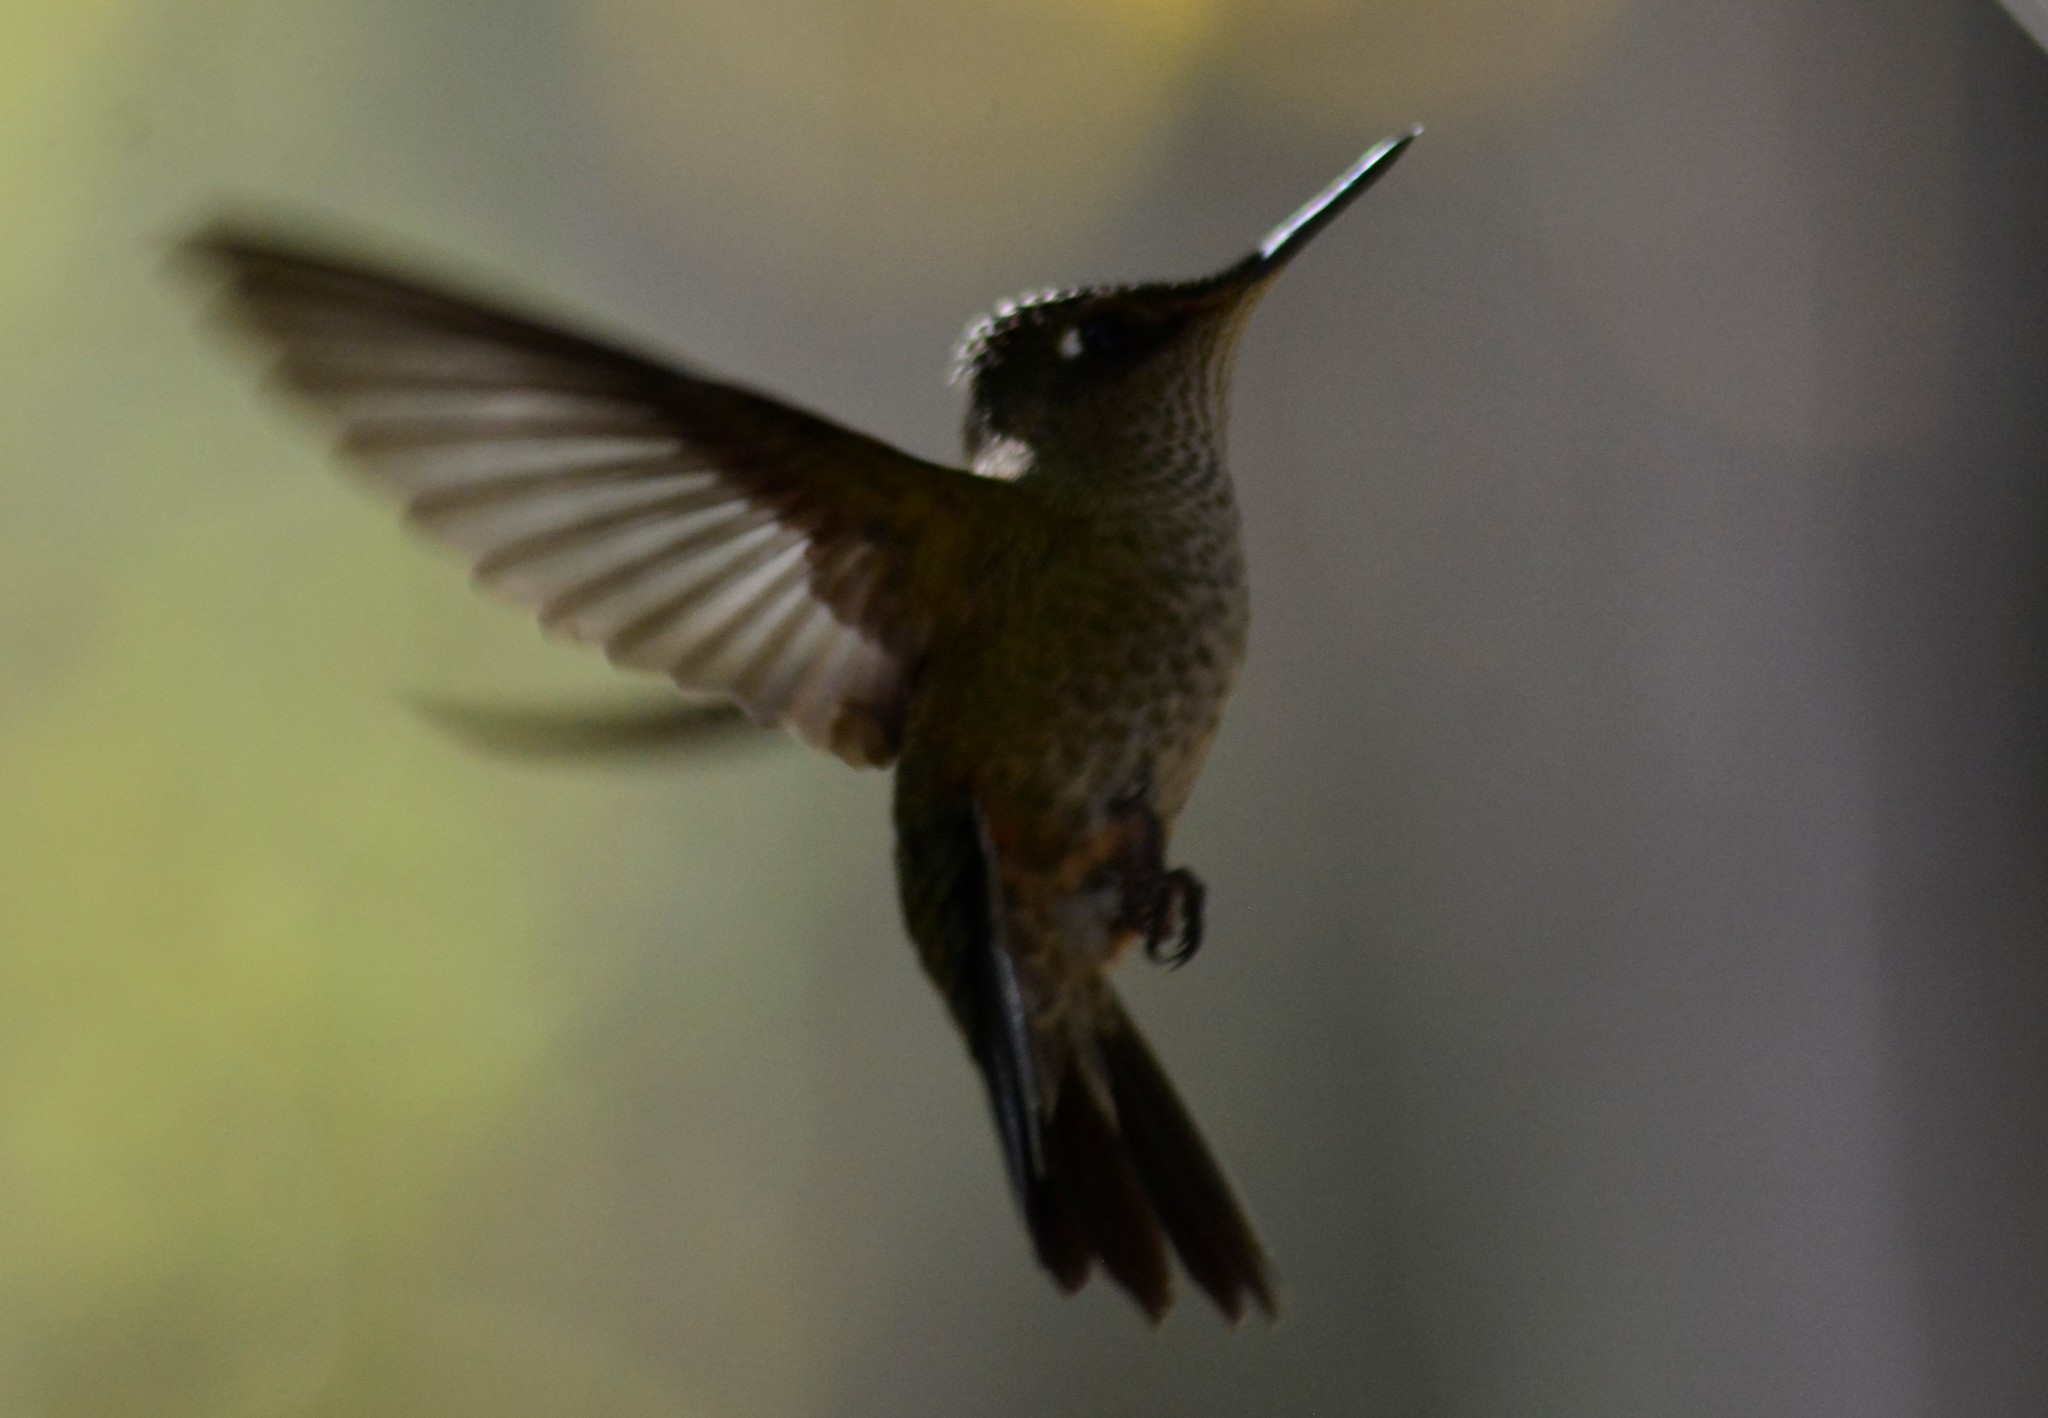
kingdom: Animalia
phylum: Chordata
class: Aves
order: Apodiformes
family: Trochilidae
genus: Sephanoides
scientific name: Sephanoides sephaniodes
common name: Green-backed firecrown
